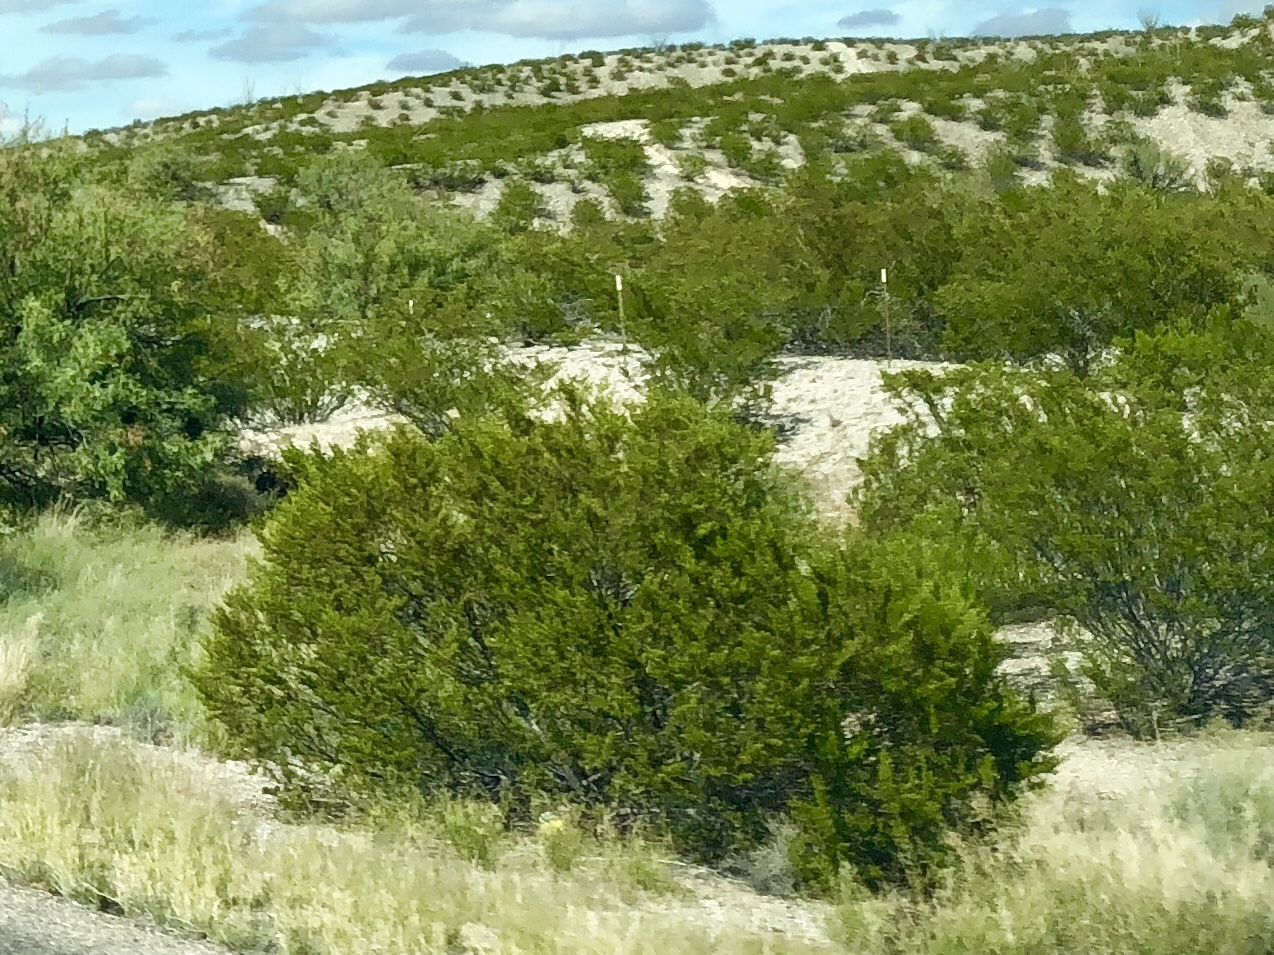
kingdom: Plantae
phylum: Tracheophyta
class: Magnoliopsida
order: Zygophyllales
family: Zygophyllaceae
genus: Larrea
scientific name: Larrea tridentata
